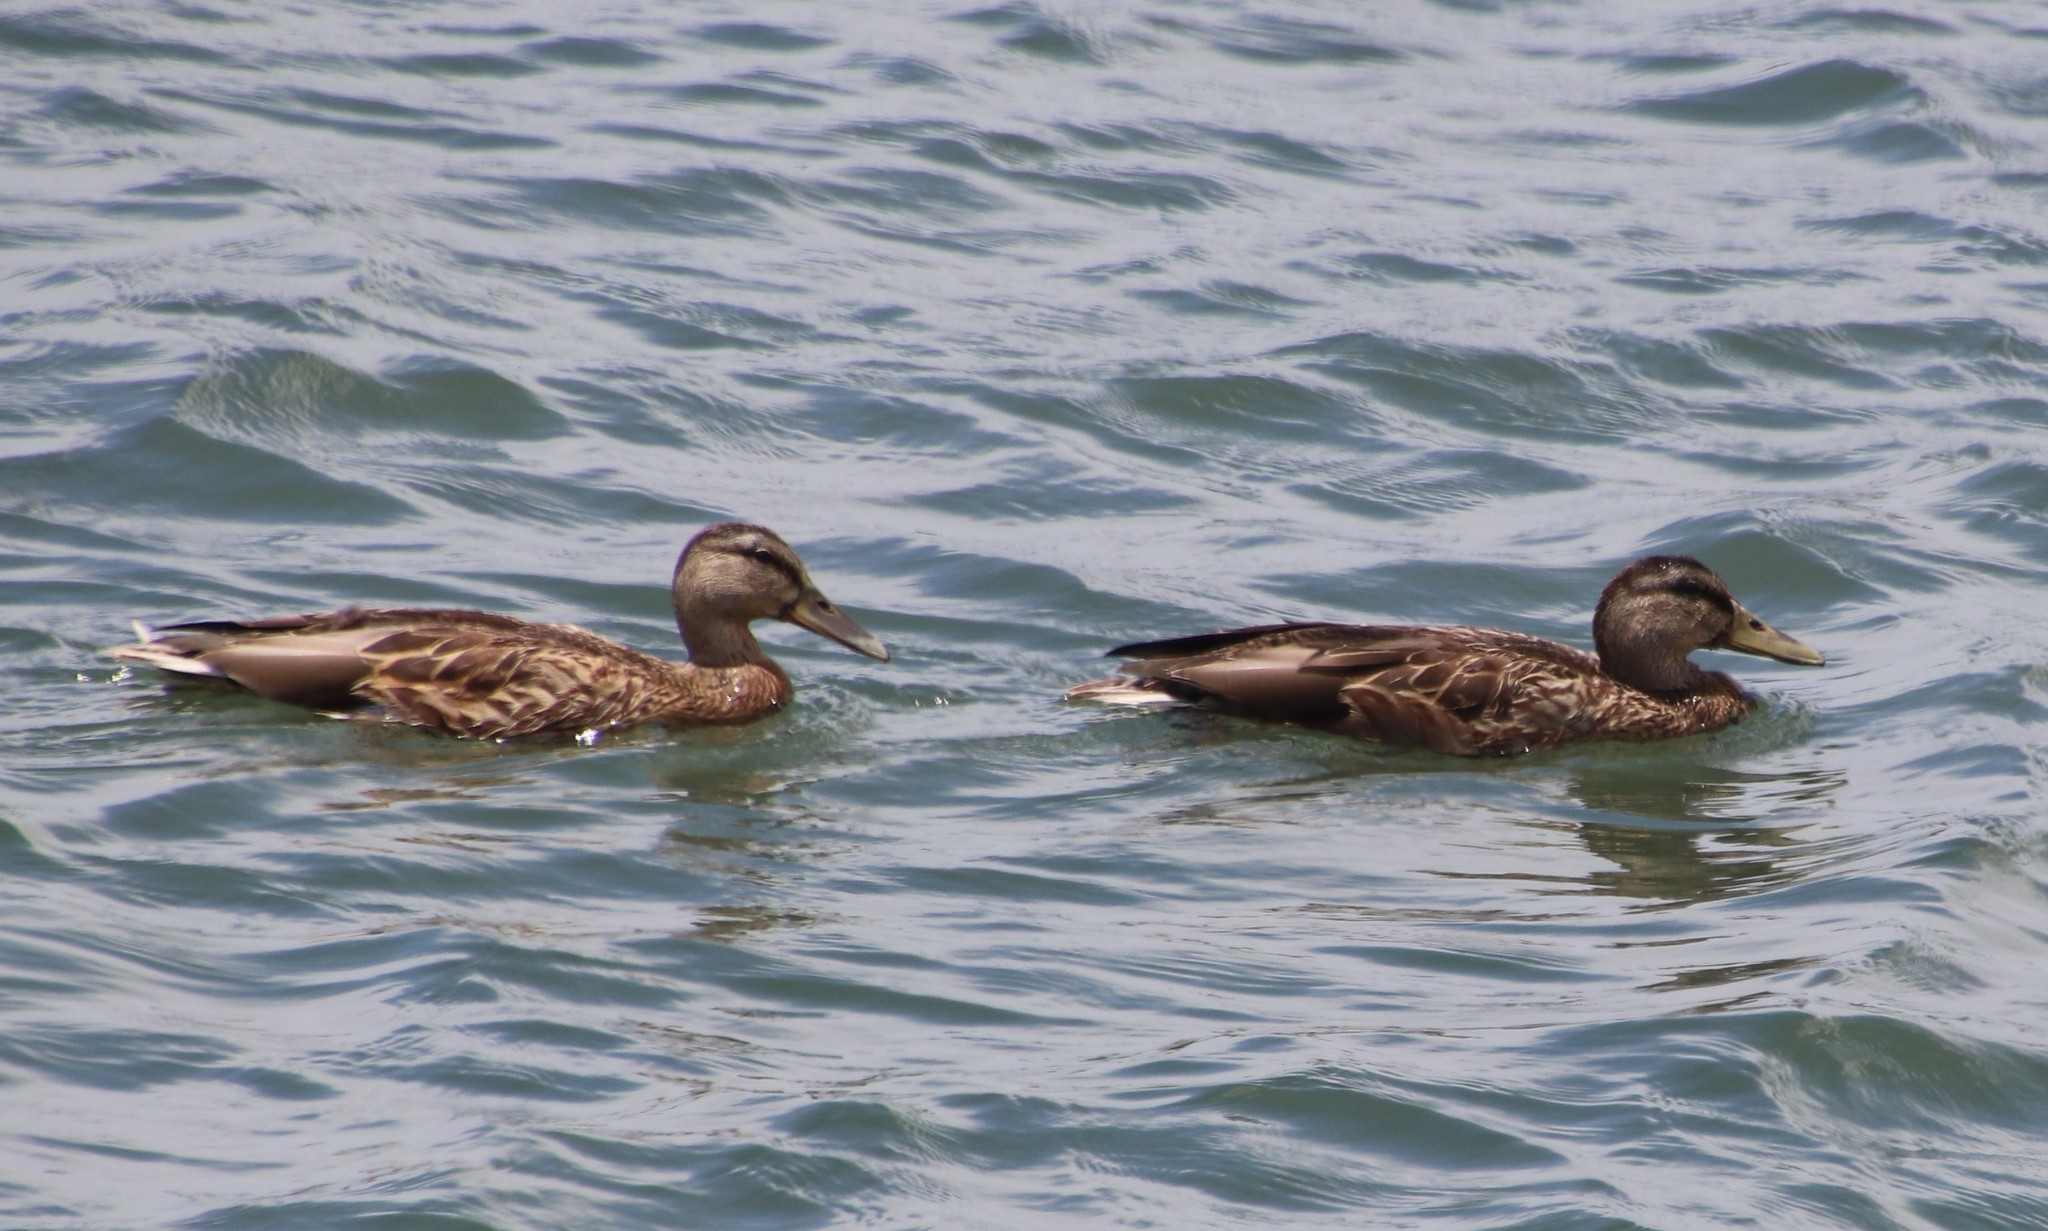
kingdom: Animalia
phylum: Chordata
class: Aves
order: Anseriformes
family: Anatidae
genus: Anas
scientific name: Anas platyrhynchos
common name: Mallard
